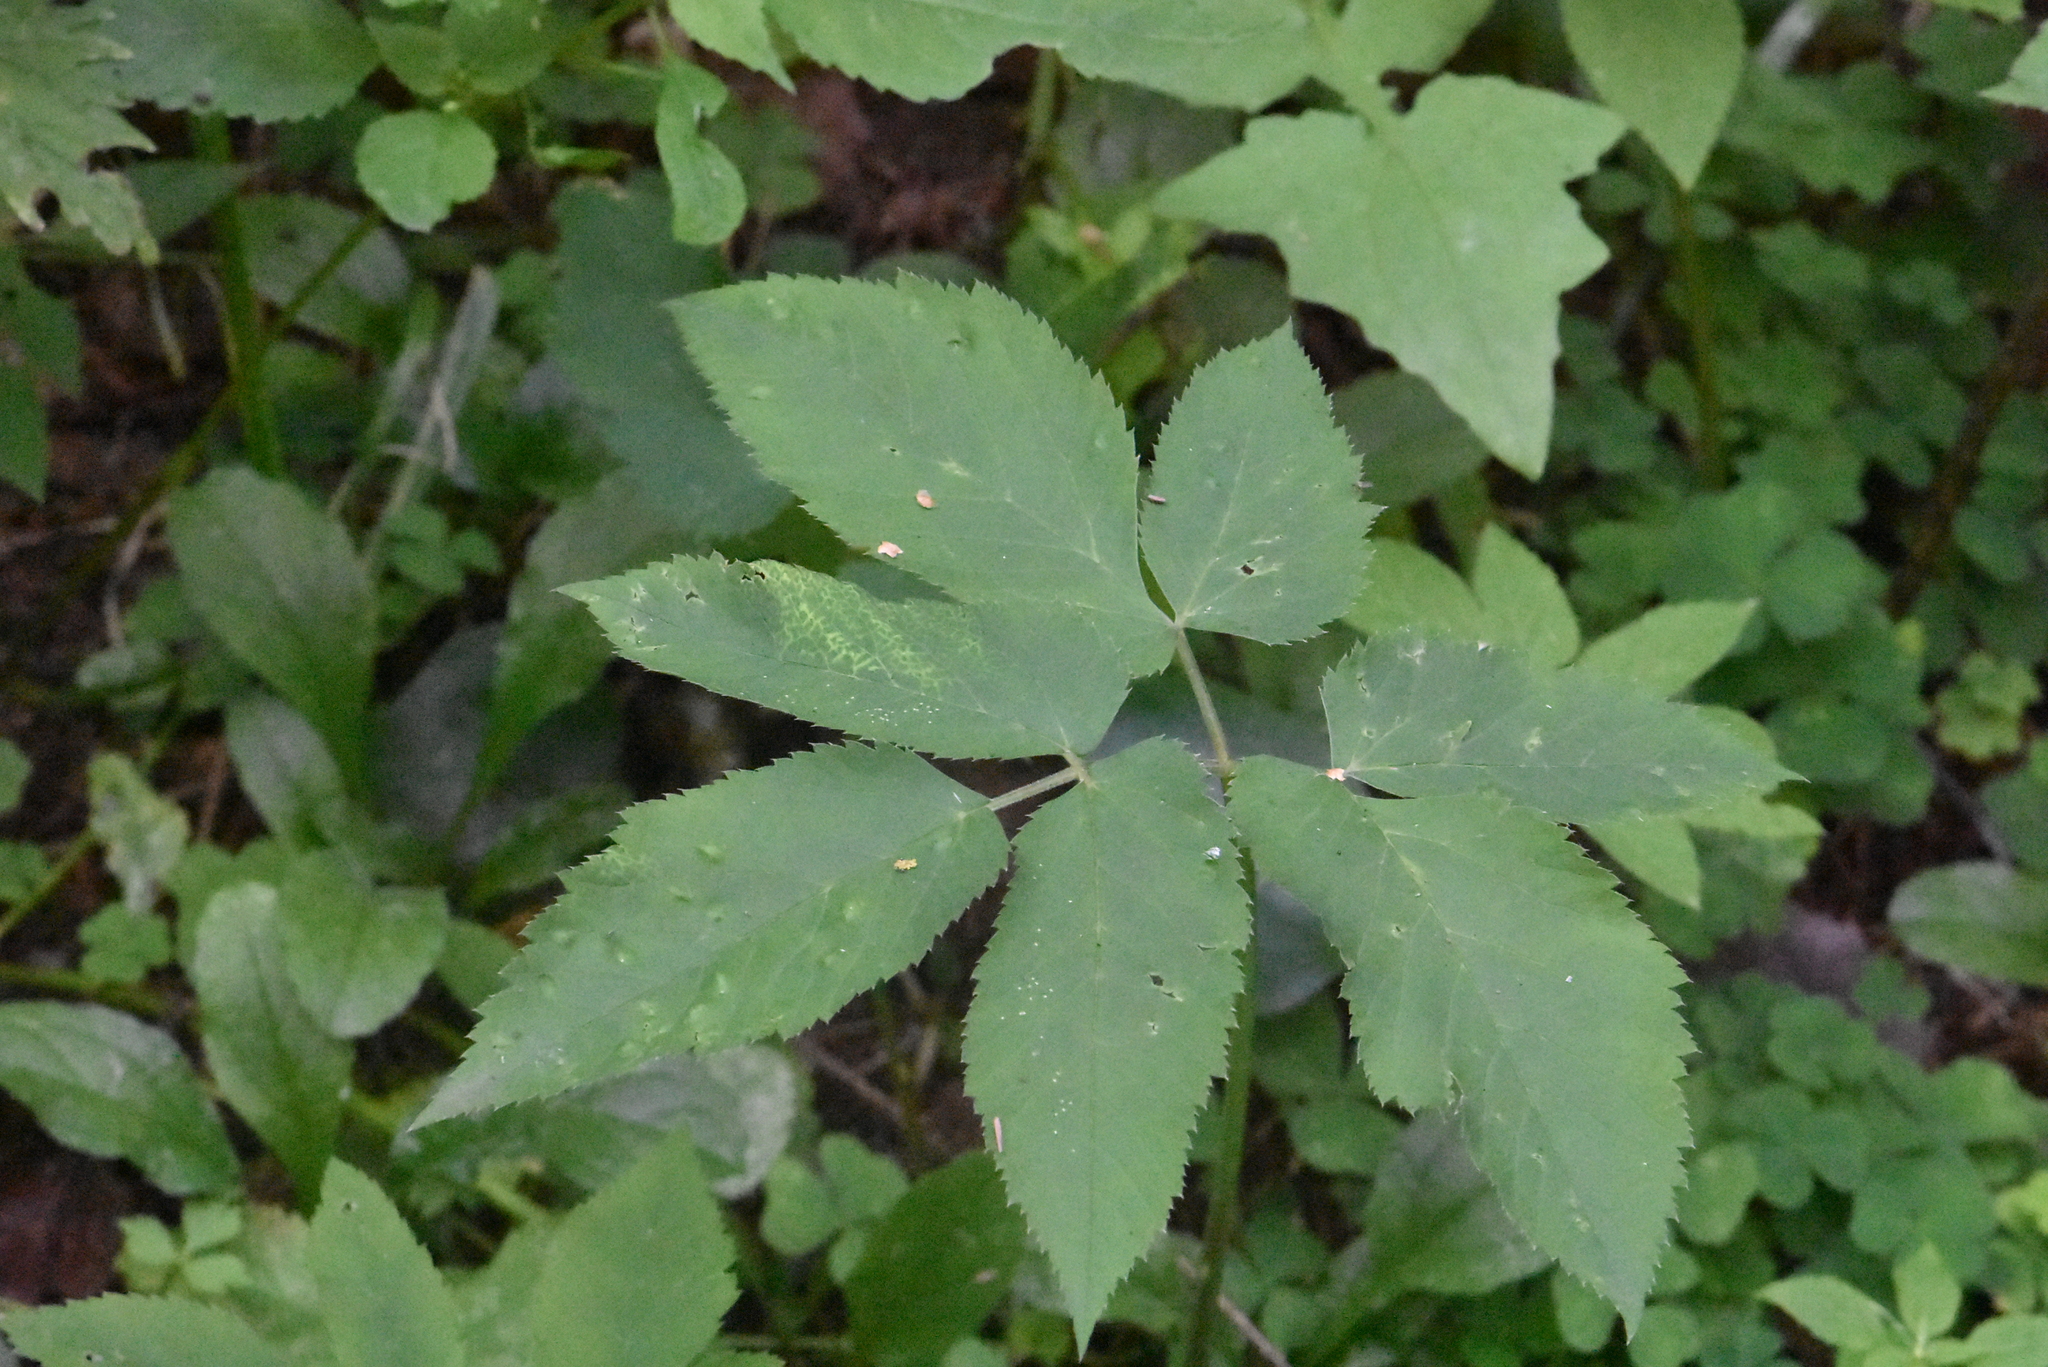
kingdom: Plantae
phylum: Tracheophyta
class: Magnoliopsida
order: Apiales
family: Apiaceae
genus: Aegopodium
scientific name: Aegopodium podagraria
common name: Ground-elder
